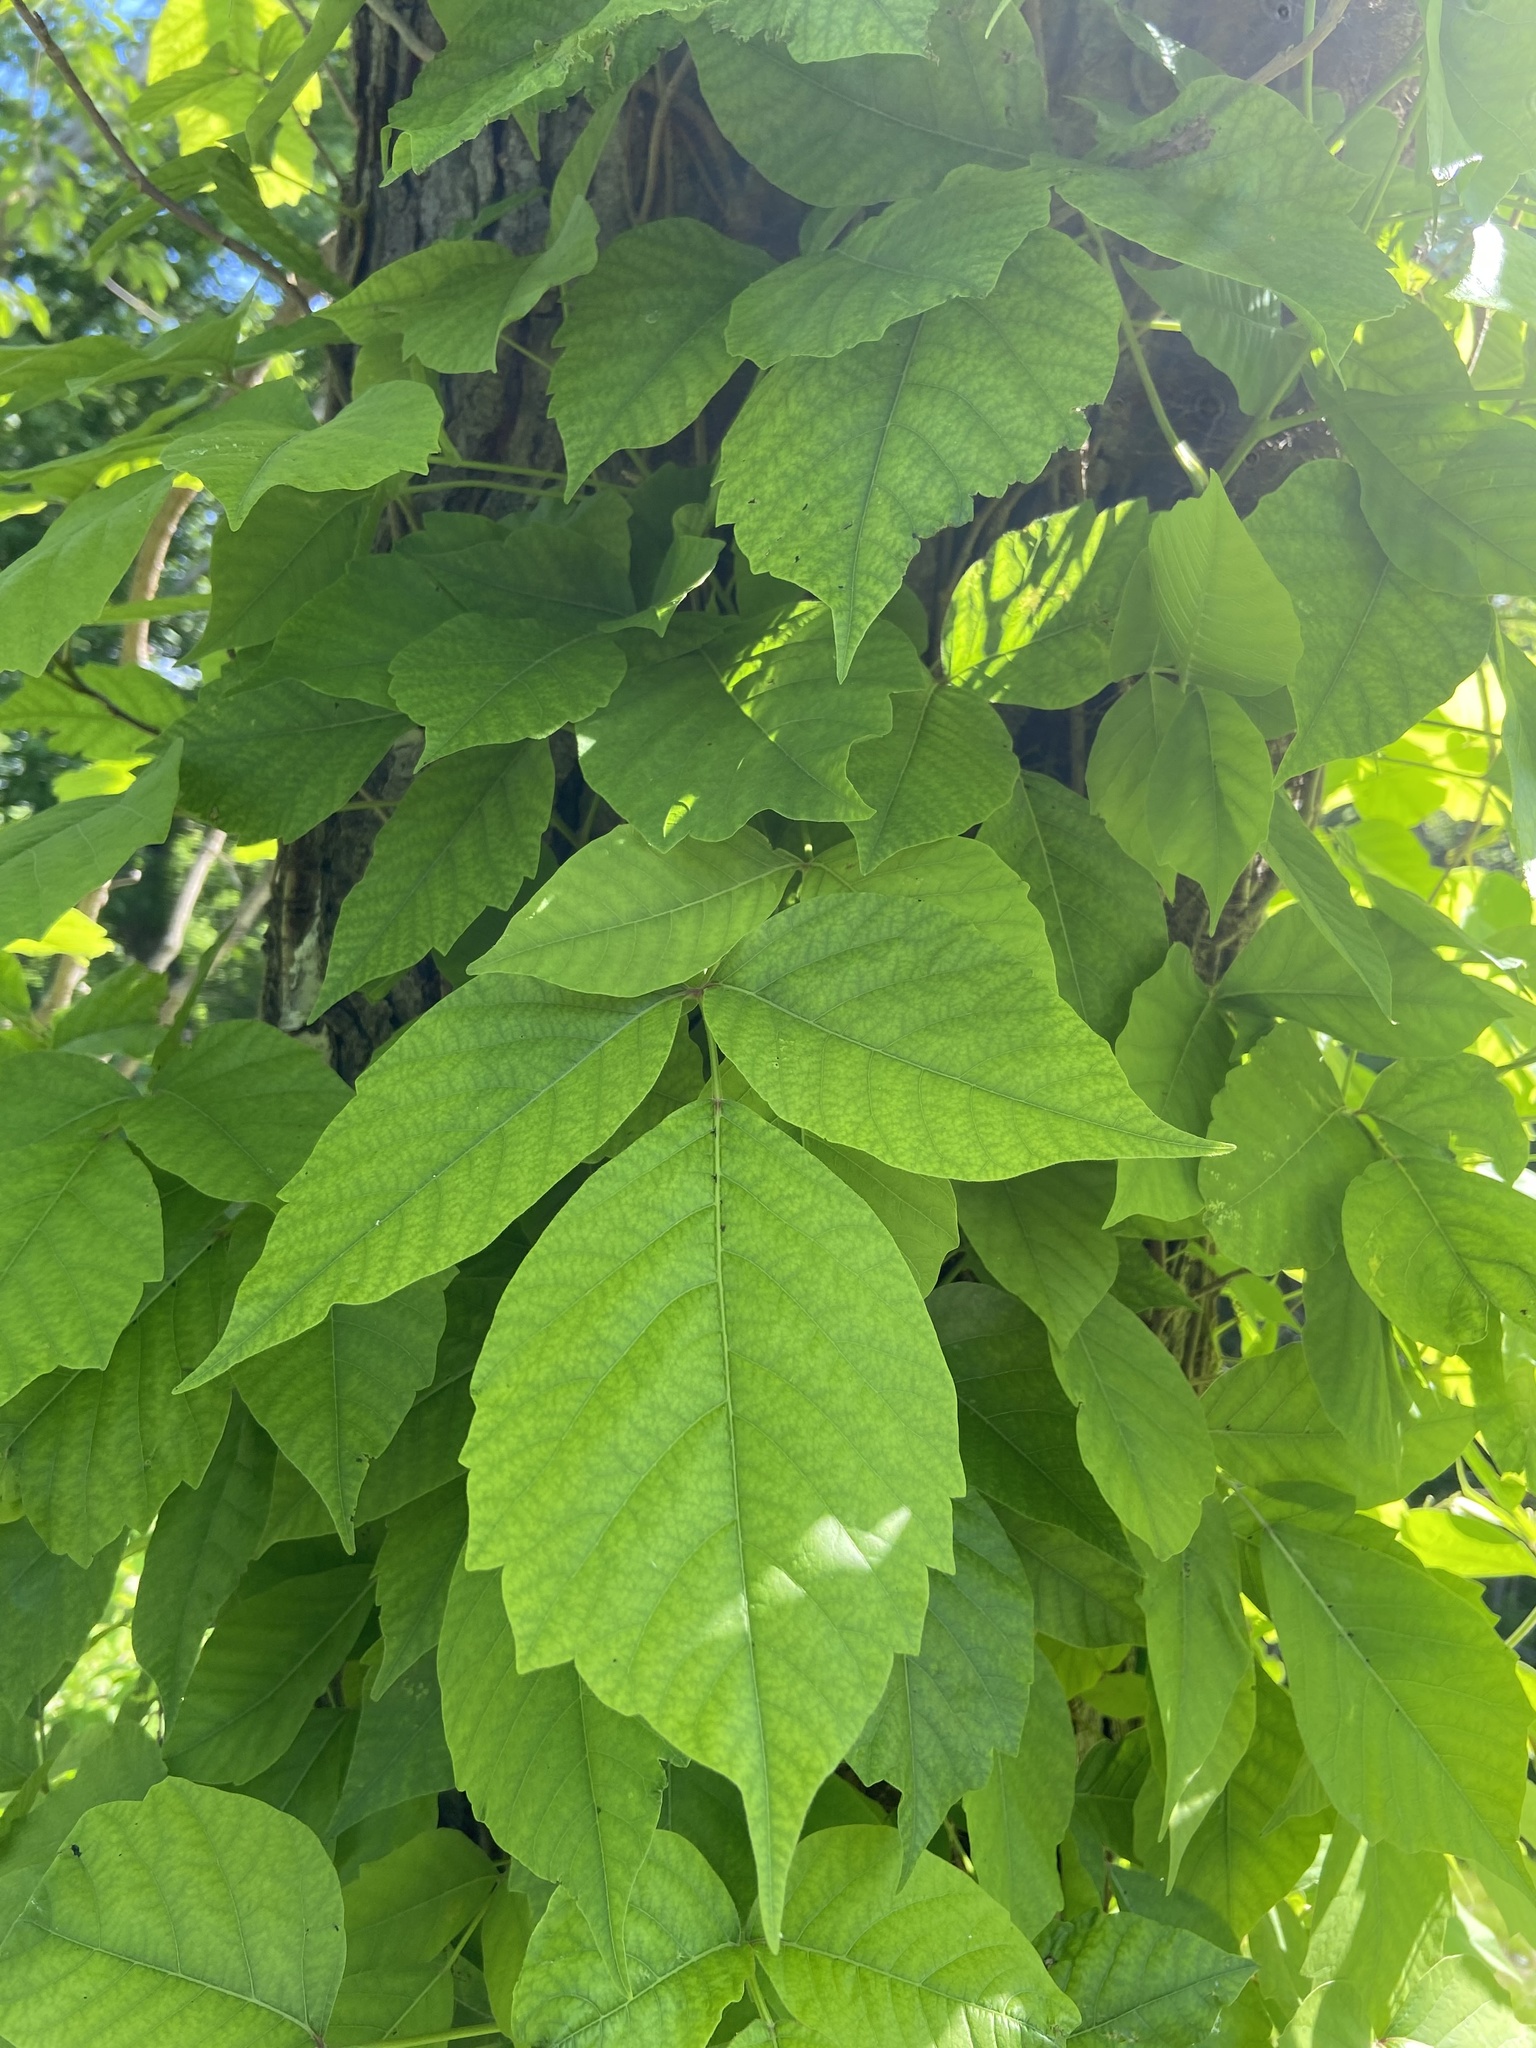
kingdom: Plantae
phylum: Tracheophyta
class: Magnoliopsida
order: Sapindales
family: Anacardiaceae
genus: Toxicodendron
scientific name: Toxicodendron radicans
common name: Poison ivy
